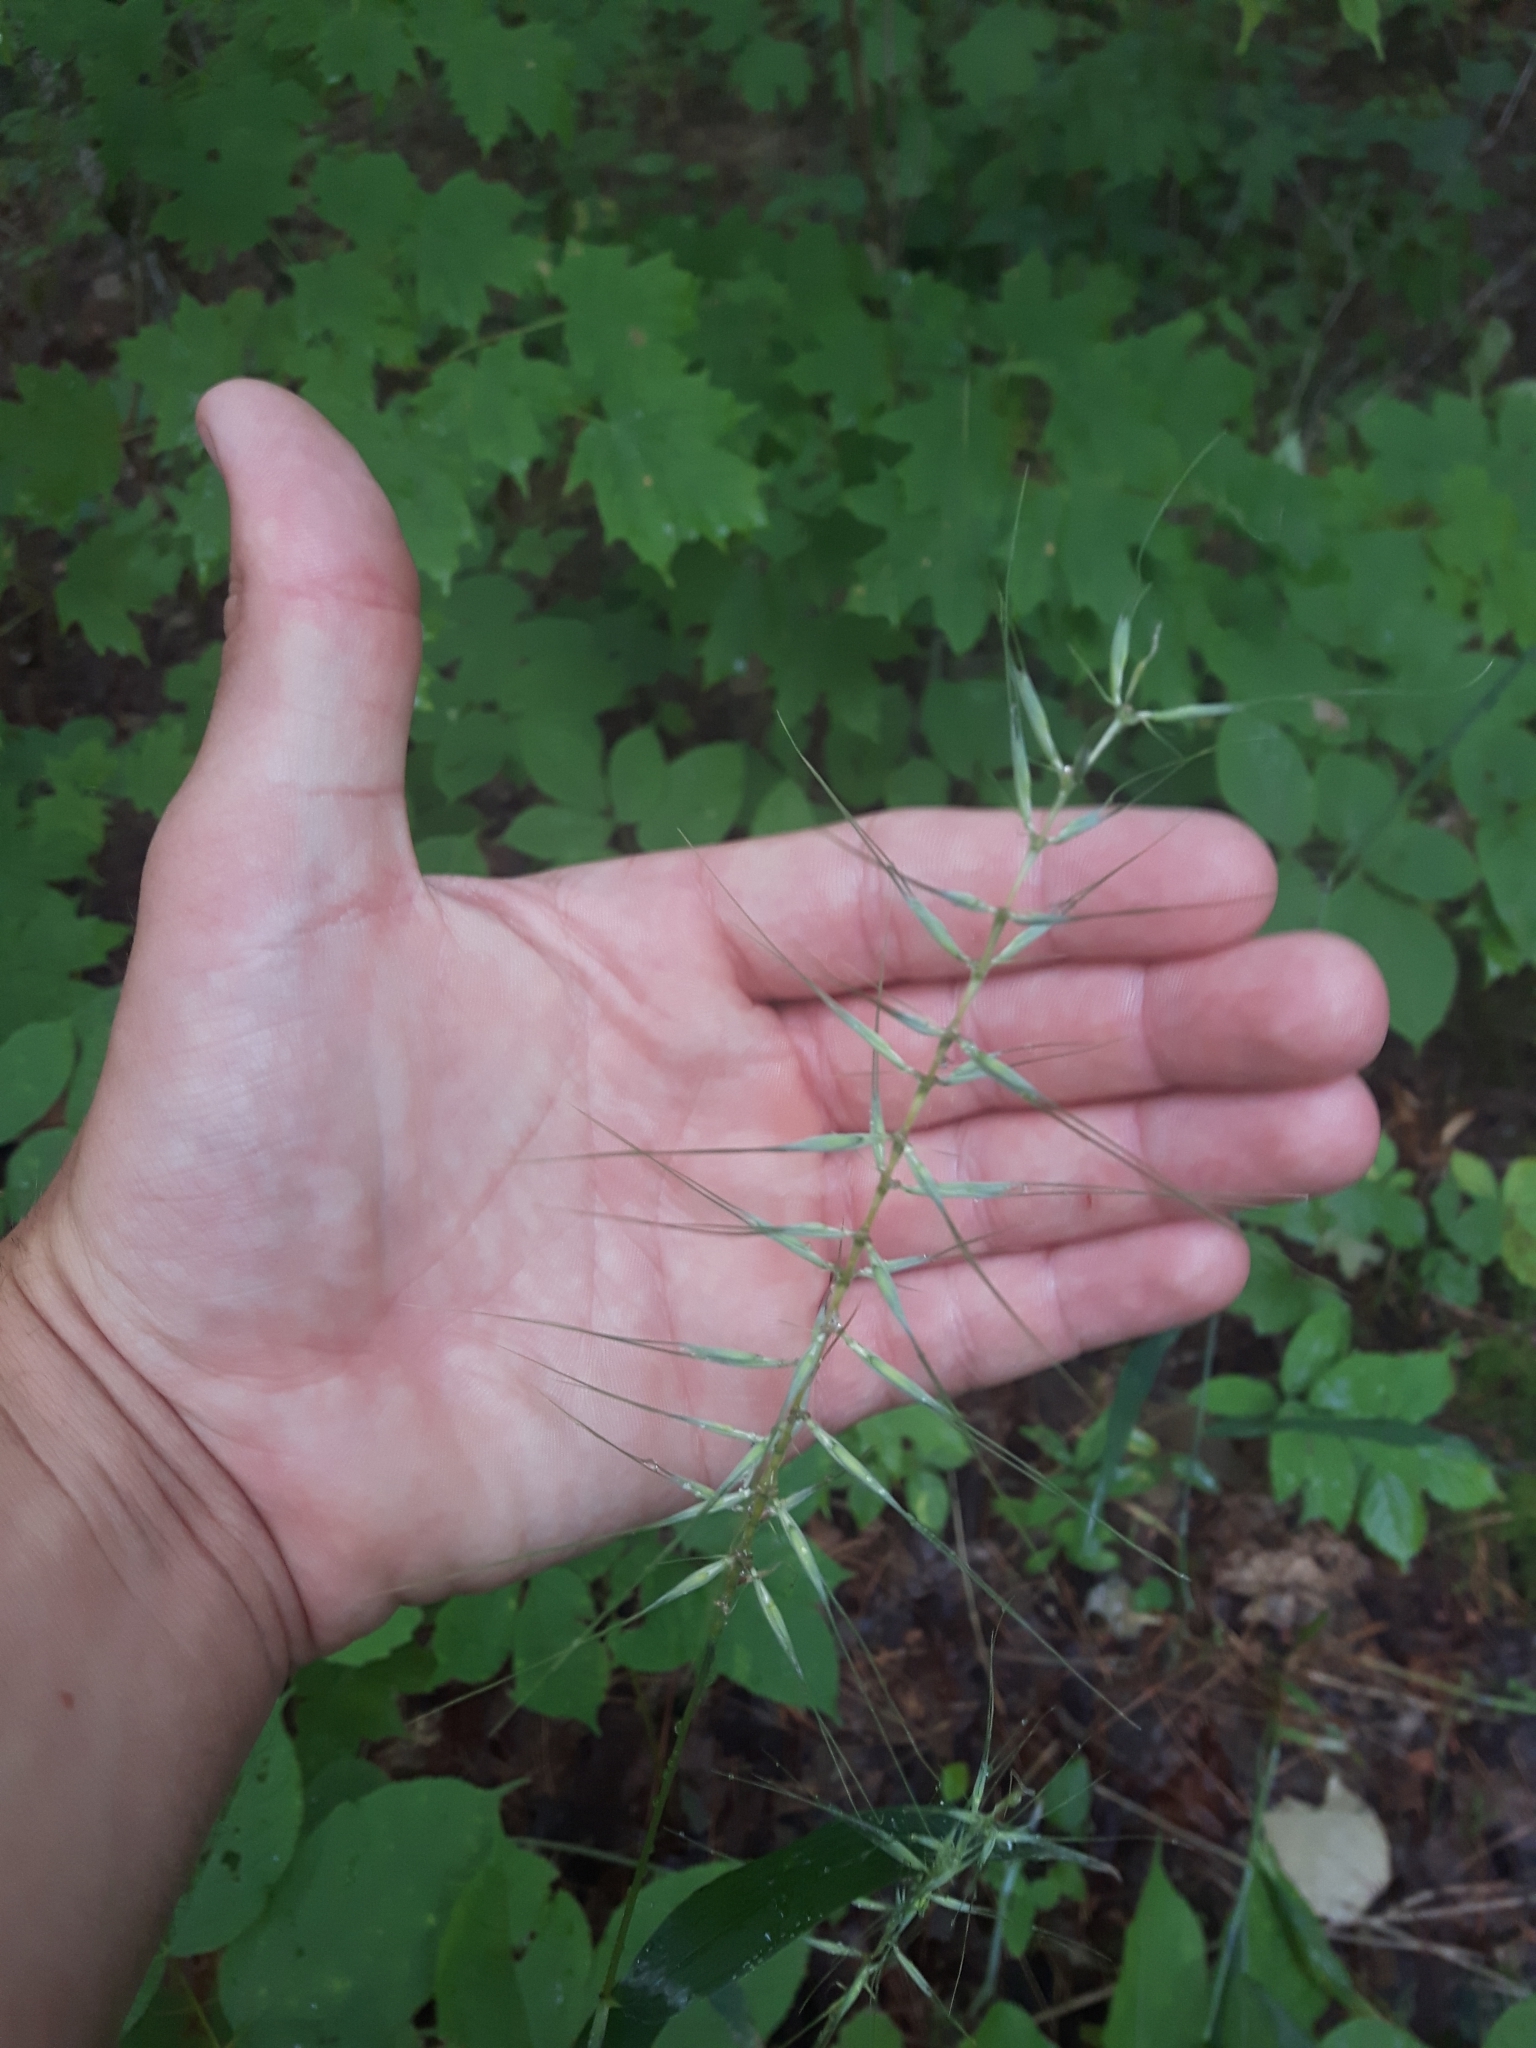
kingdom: Plantae
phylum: Tracheophyta
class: Liliopsida
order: Poales
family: Poaceae
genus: Elymus
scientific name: Elymus hystrix
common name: Bottlebrush grass
